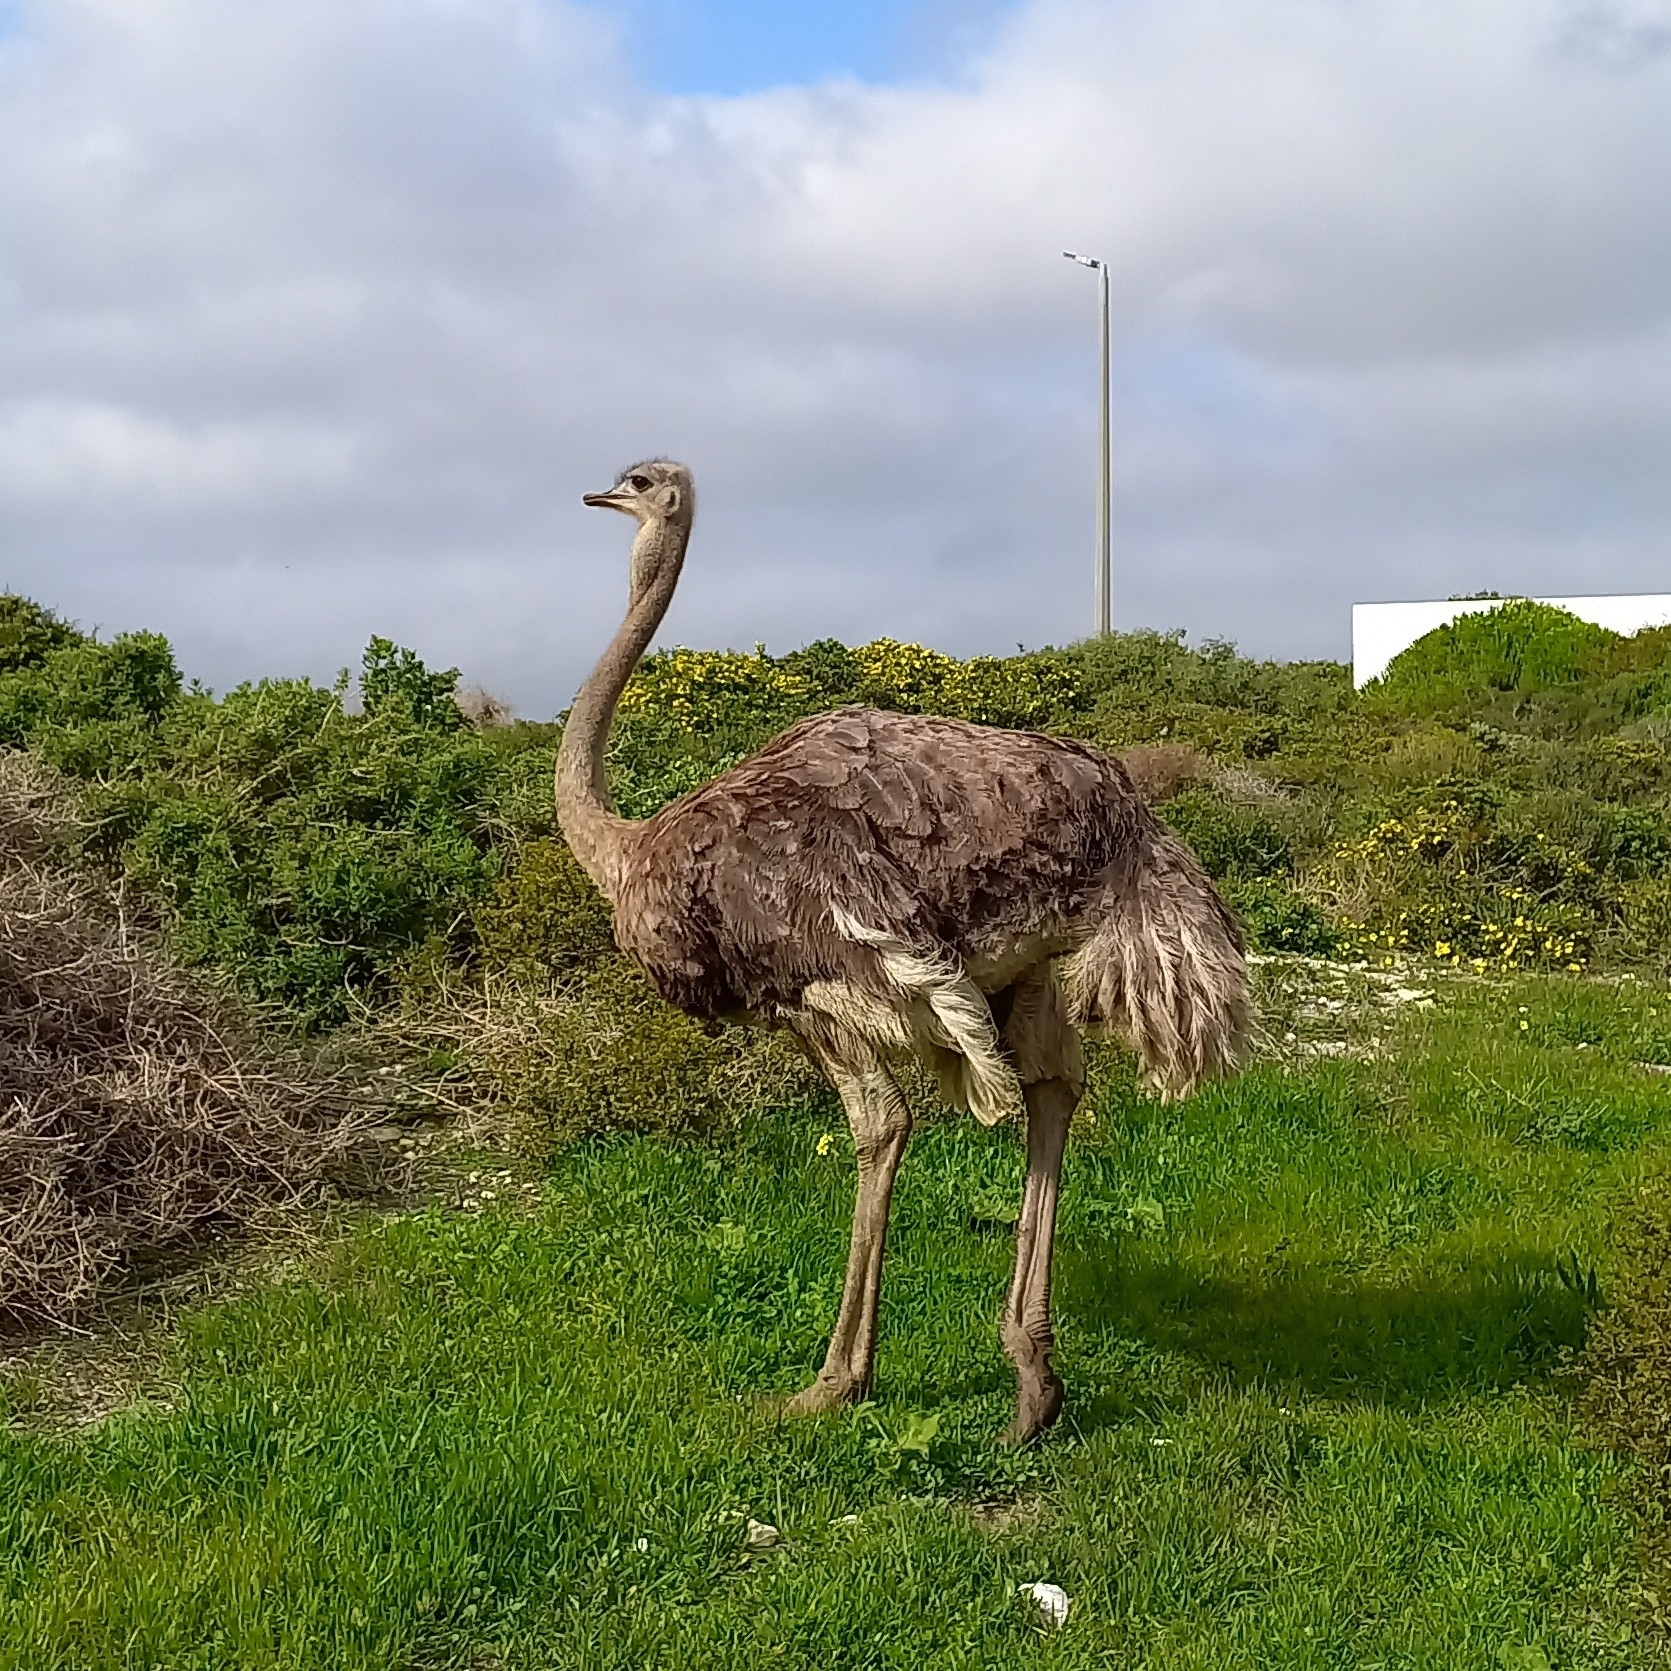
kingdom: Animalia
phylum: Chordata
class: Aves
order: Struthioniformes
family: Struthionidae
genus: Struthio
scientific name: Struthio camelus
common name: Common ostrich
